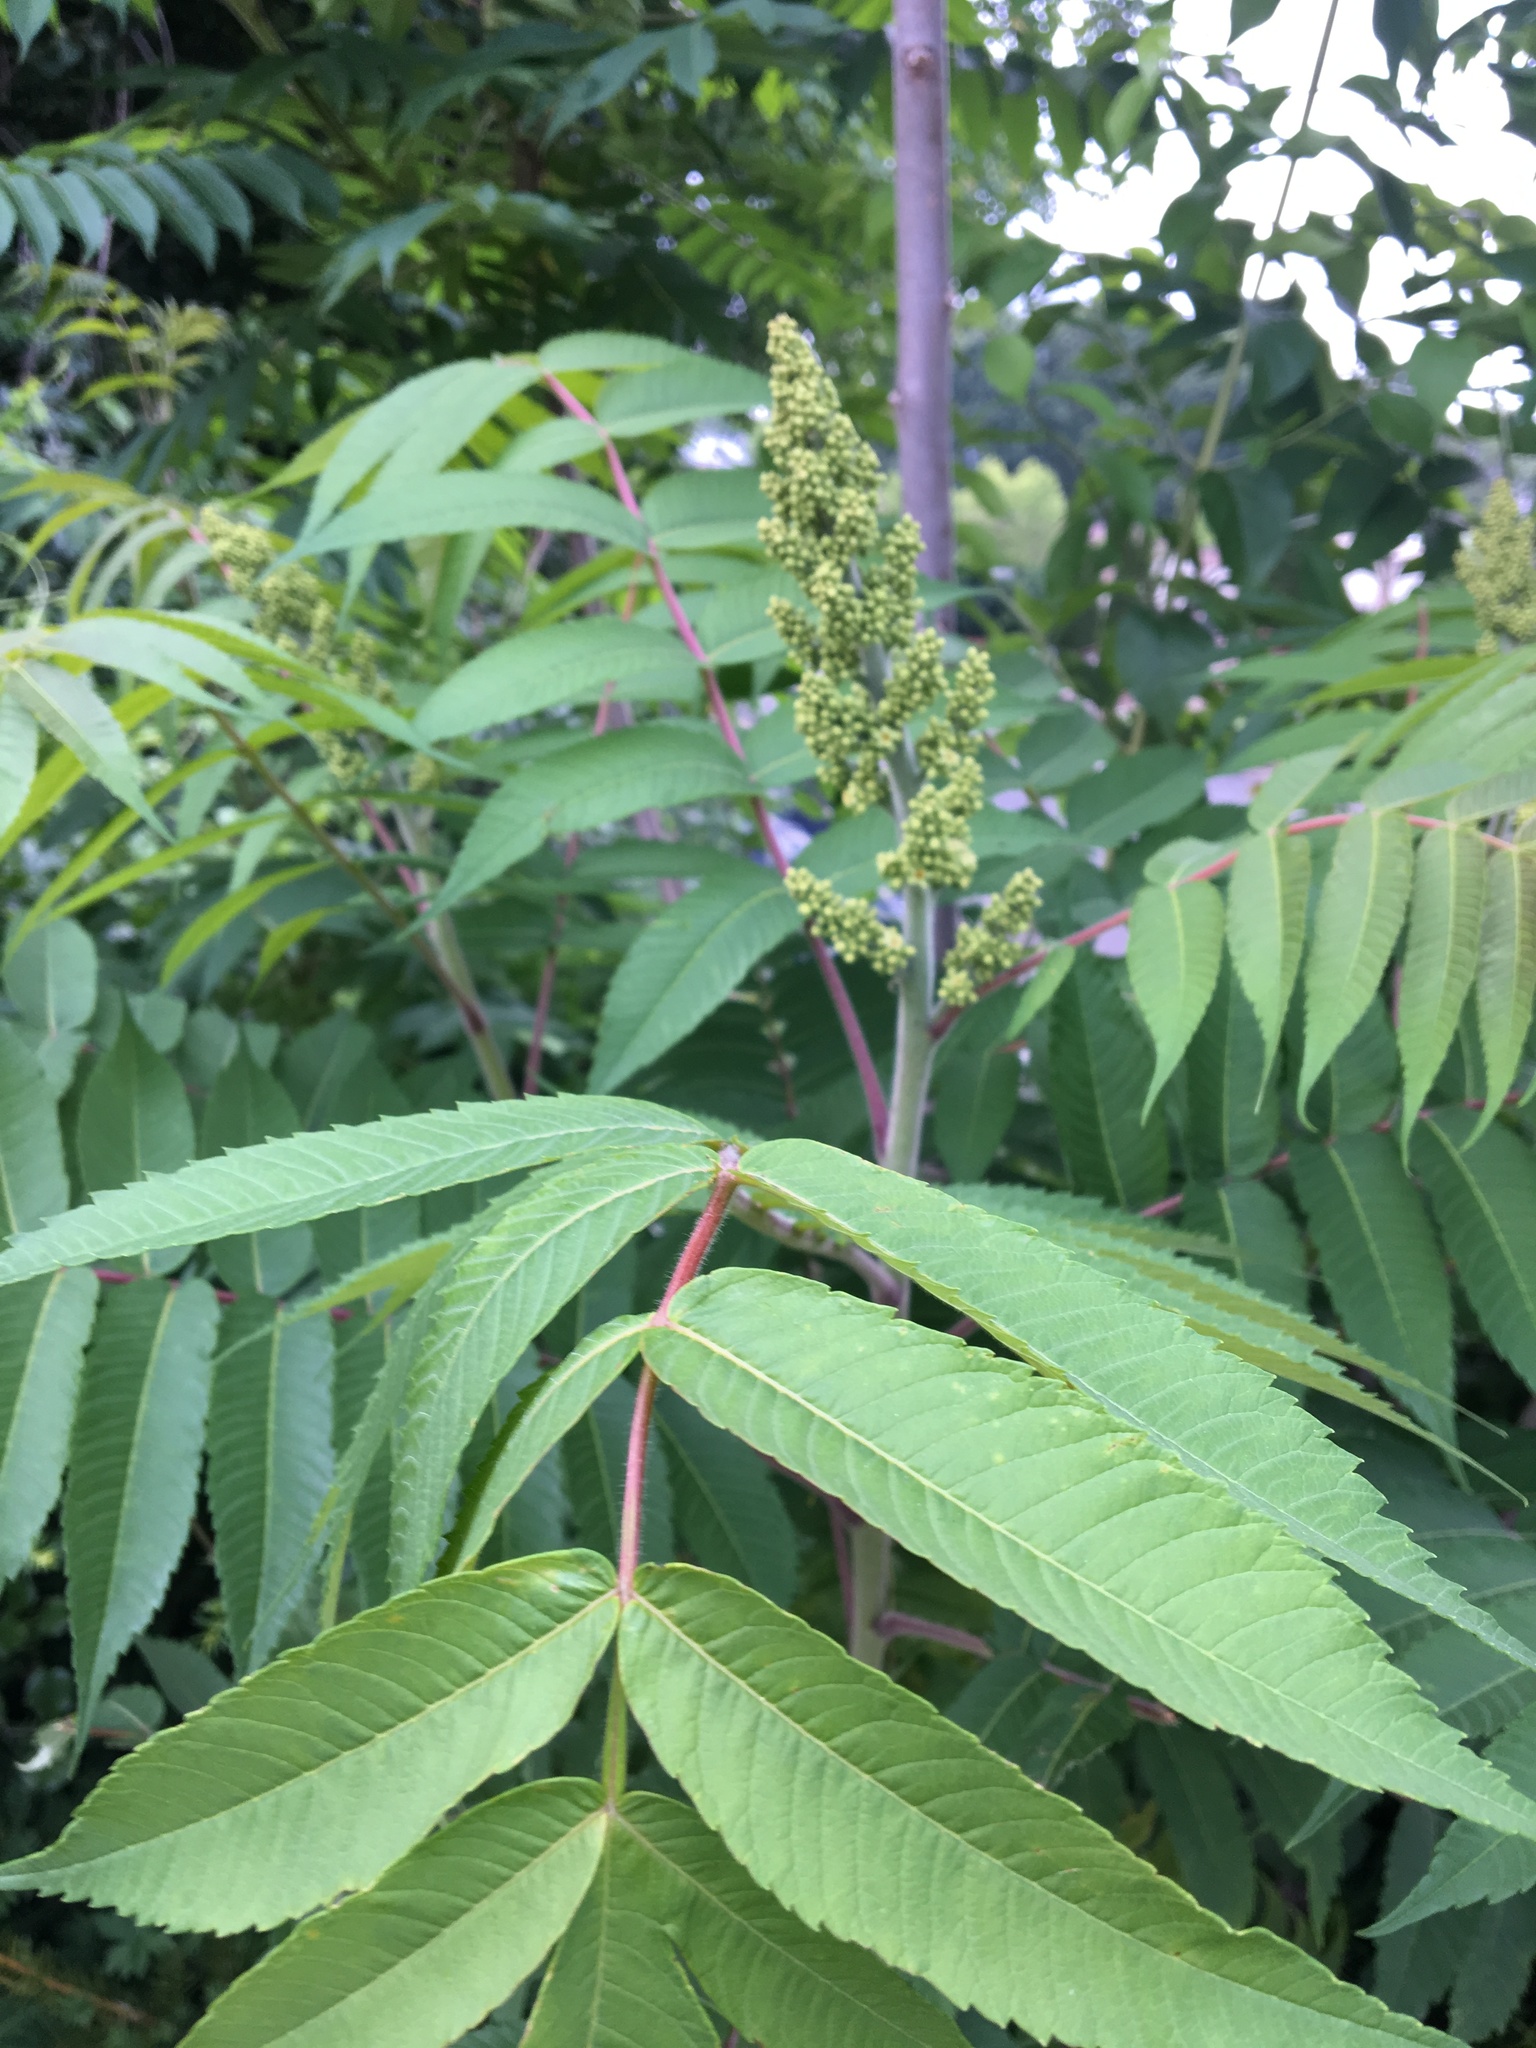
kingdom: Plantae
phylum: Tracheophyta
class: Magnoliopsida
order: Sapindales
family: Anacardiaceae
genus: Rhus
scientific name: Rhus typhina
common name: Staghorn sumac
